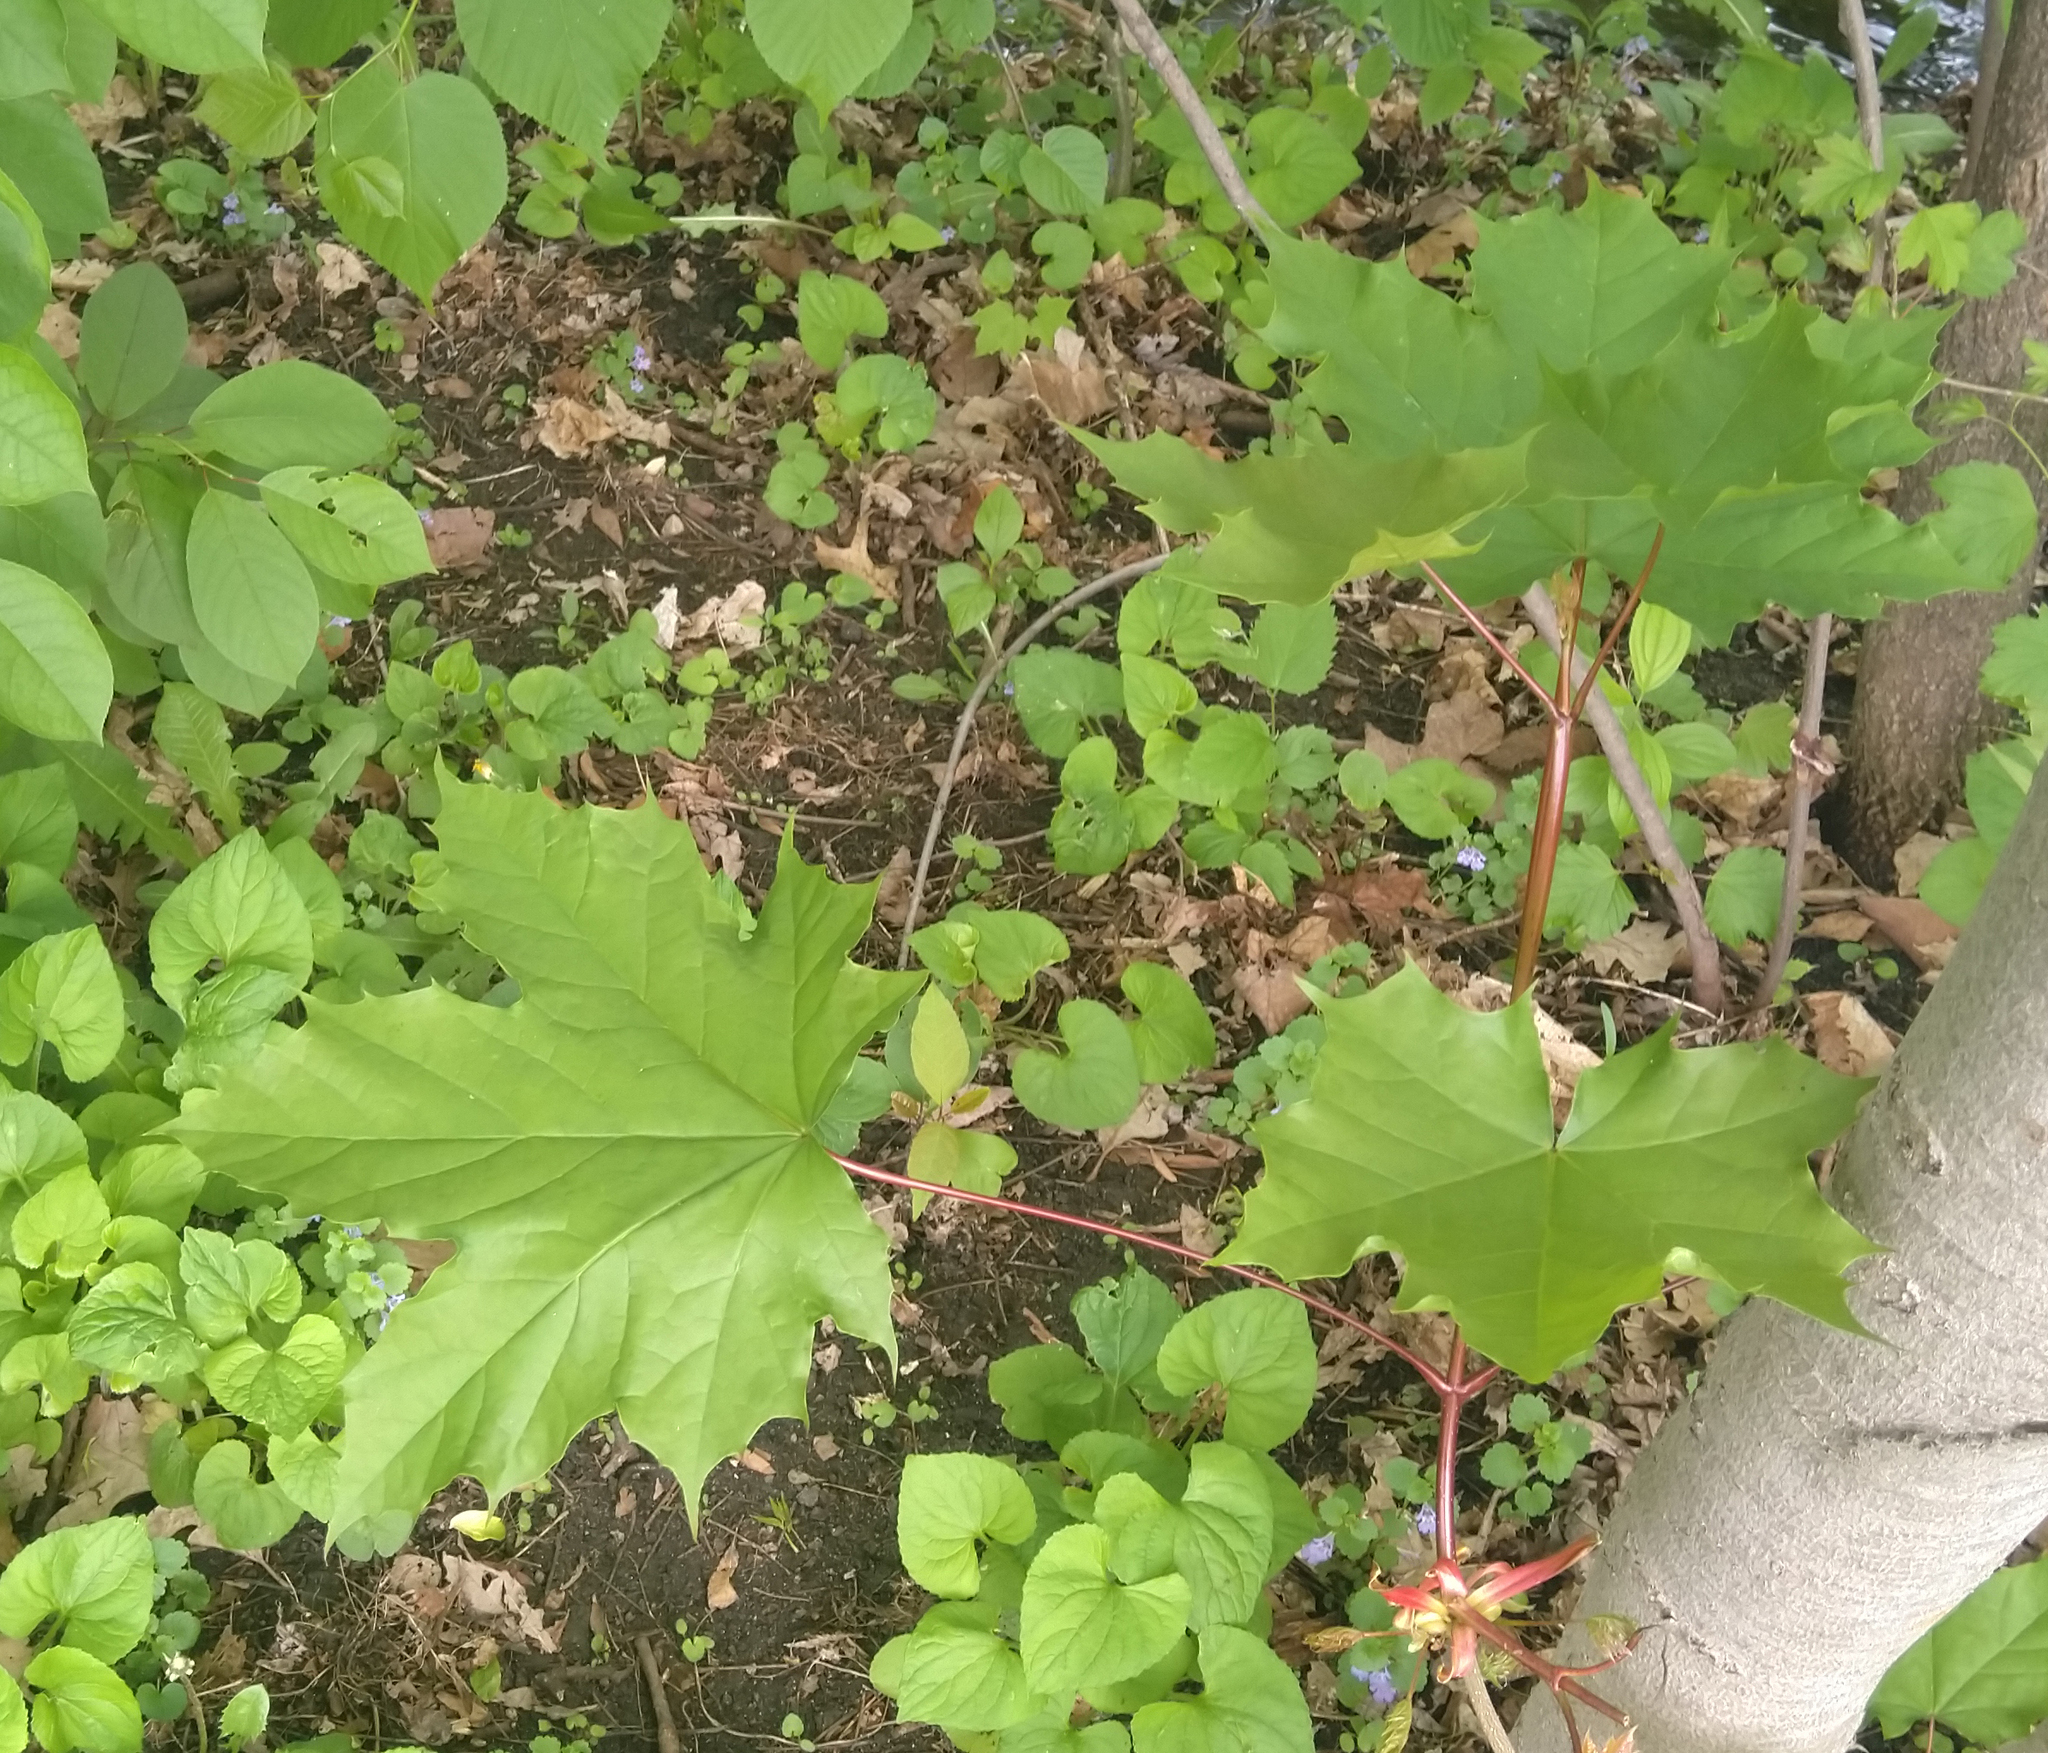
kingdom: Plantae
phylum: Tracheophyta
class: Magnoliopsida
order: Sapindales
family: Sapindaceae
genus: Acer
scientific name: Acer platanoides
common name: Norway maple
